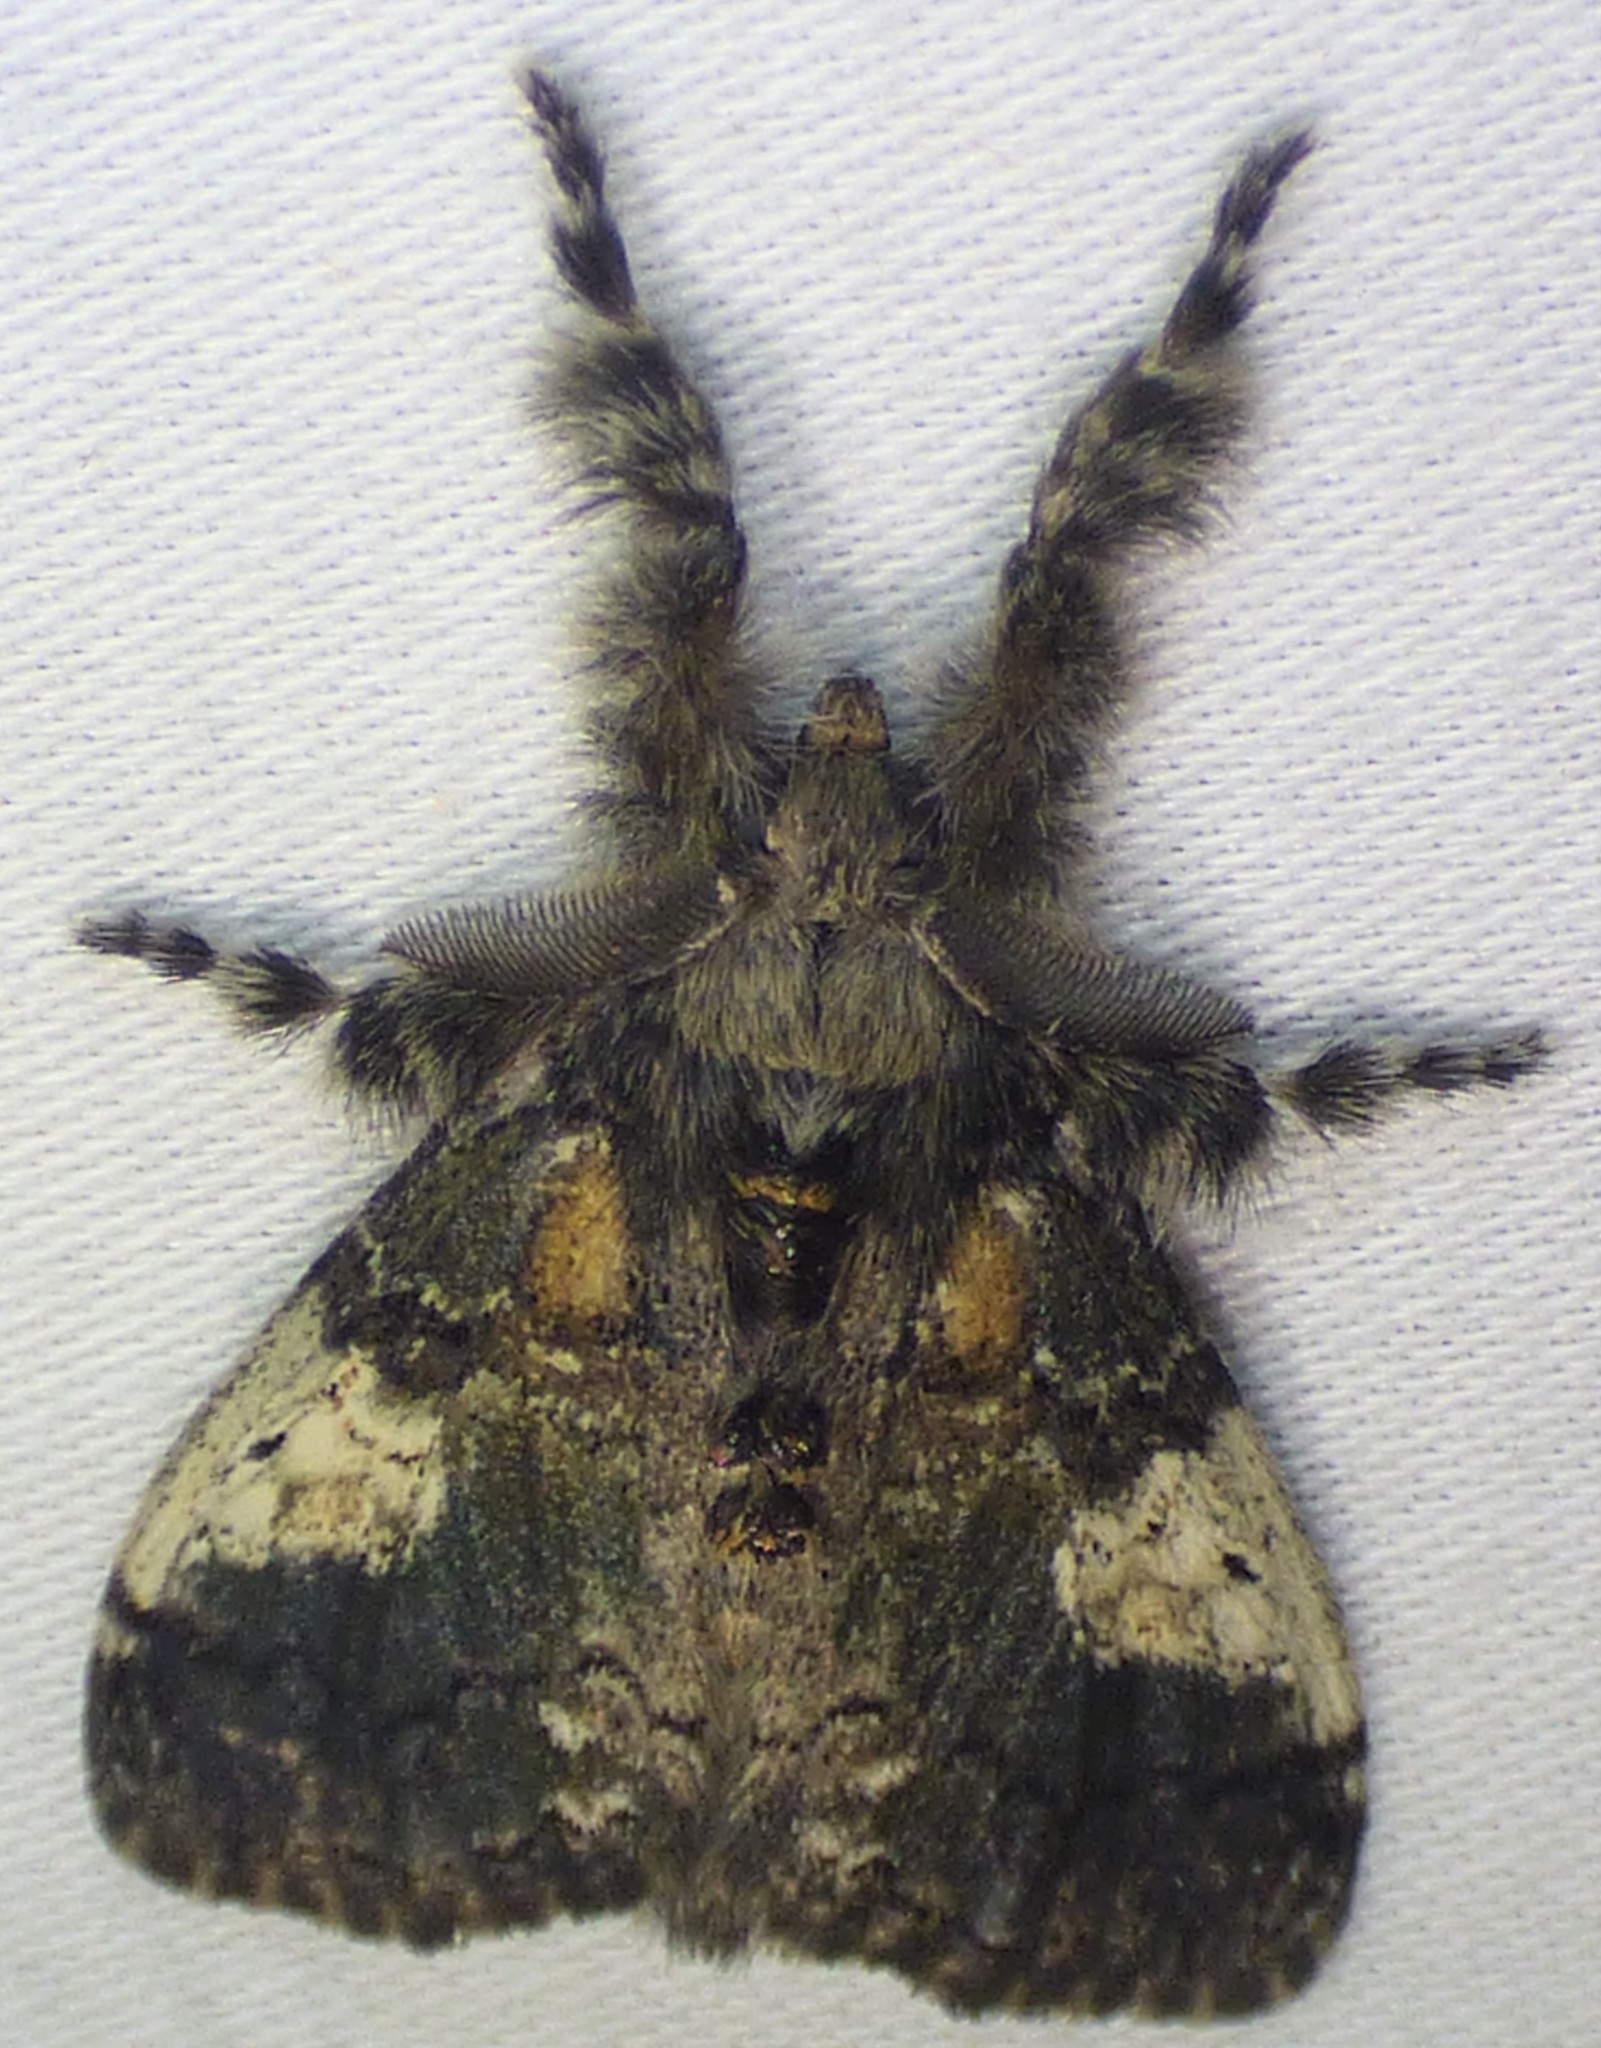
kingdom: Animalia
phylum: Arthropoda
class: Insecta
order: Lepidoptera
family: Erebidae
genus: Dasychira
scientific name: Dasychira meridionalis
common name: Southern tussock moth
